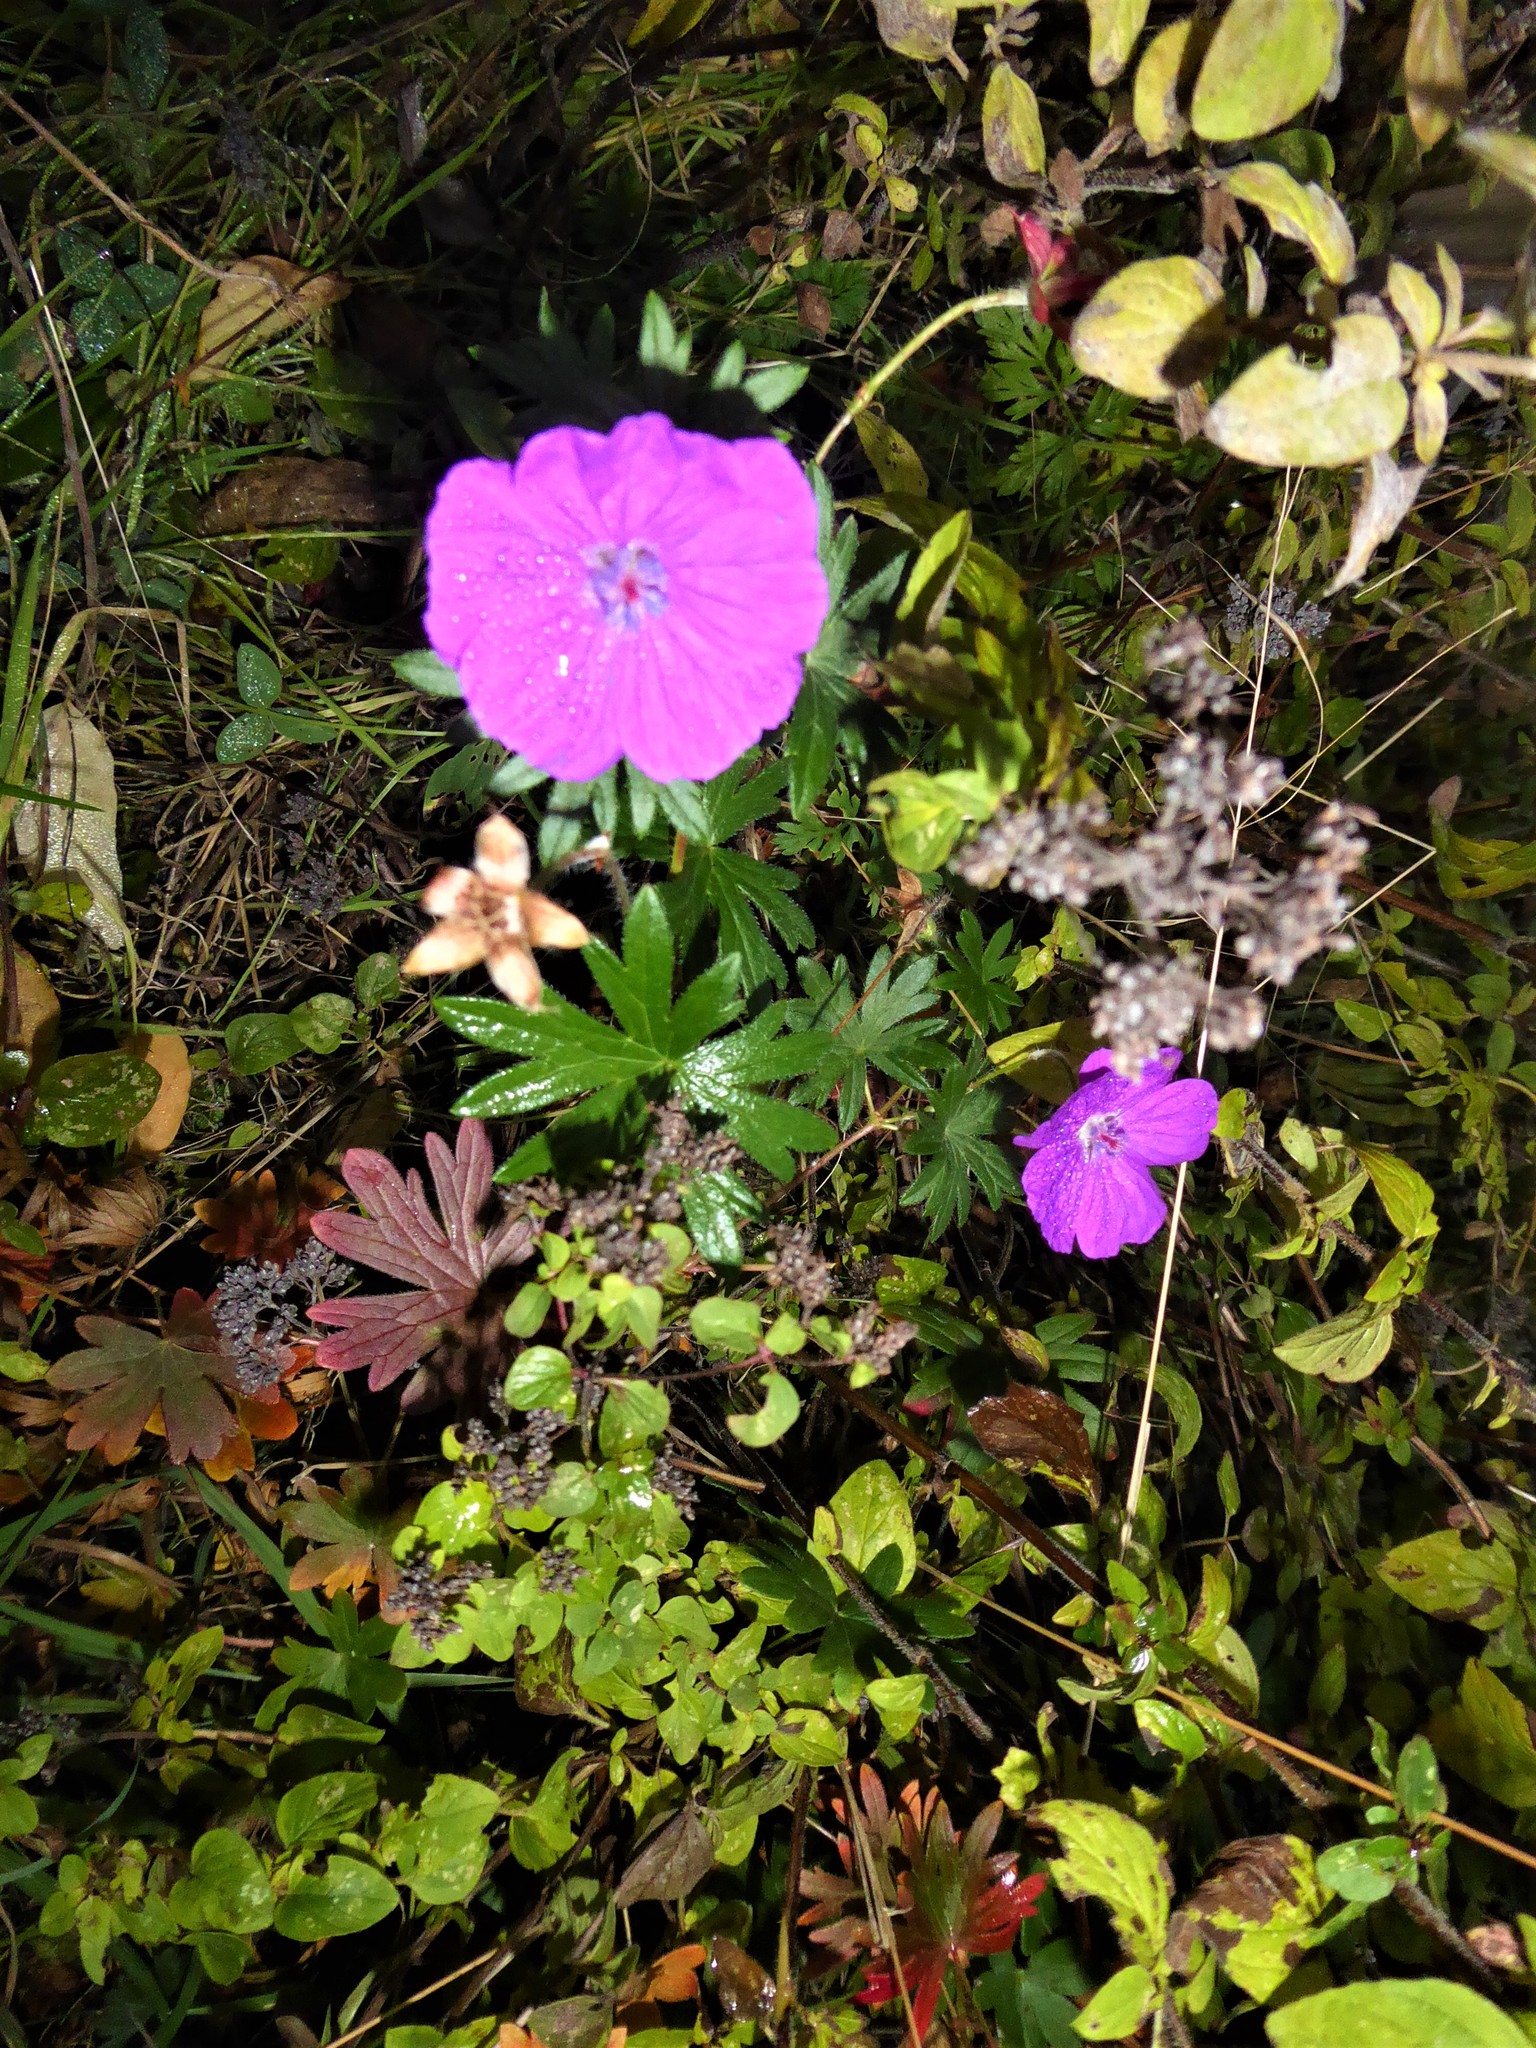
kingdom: Plantae
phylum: Tracheophyta
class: Magnoliopsida
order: Geraniales
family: Geraniaceae
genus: Geranium
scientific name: Geranium sanguineum
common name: Bloody crane's-bill
